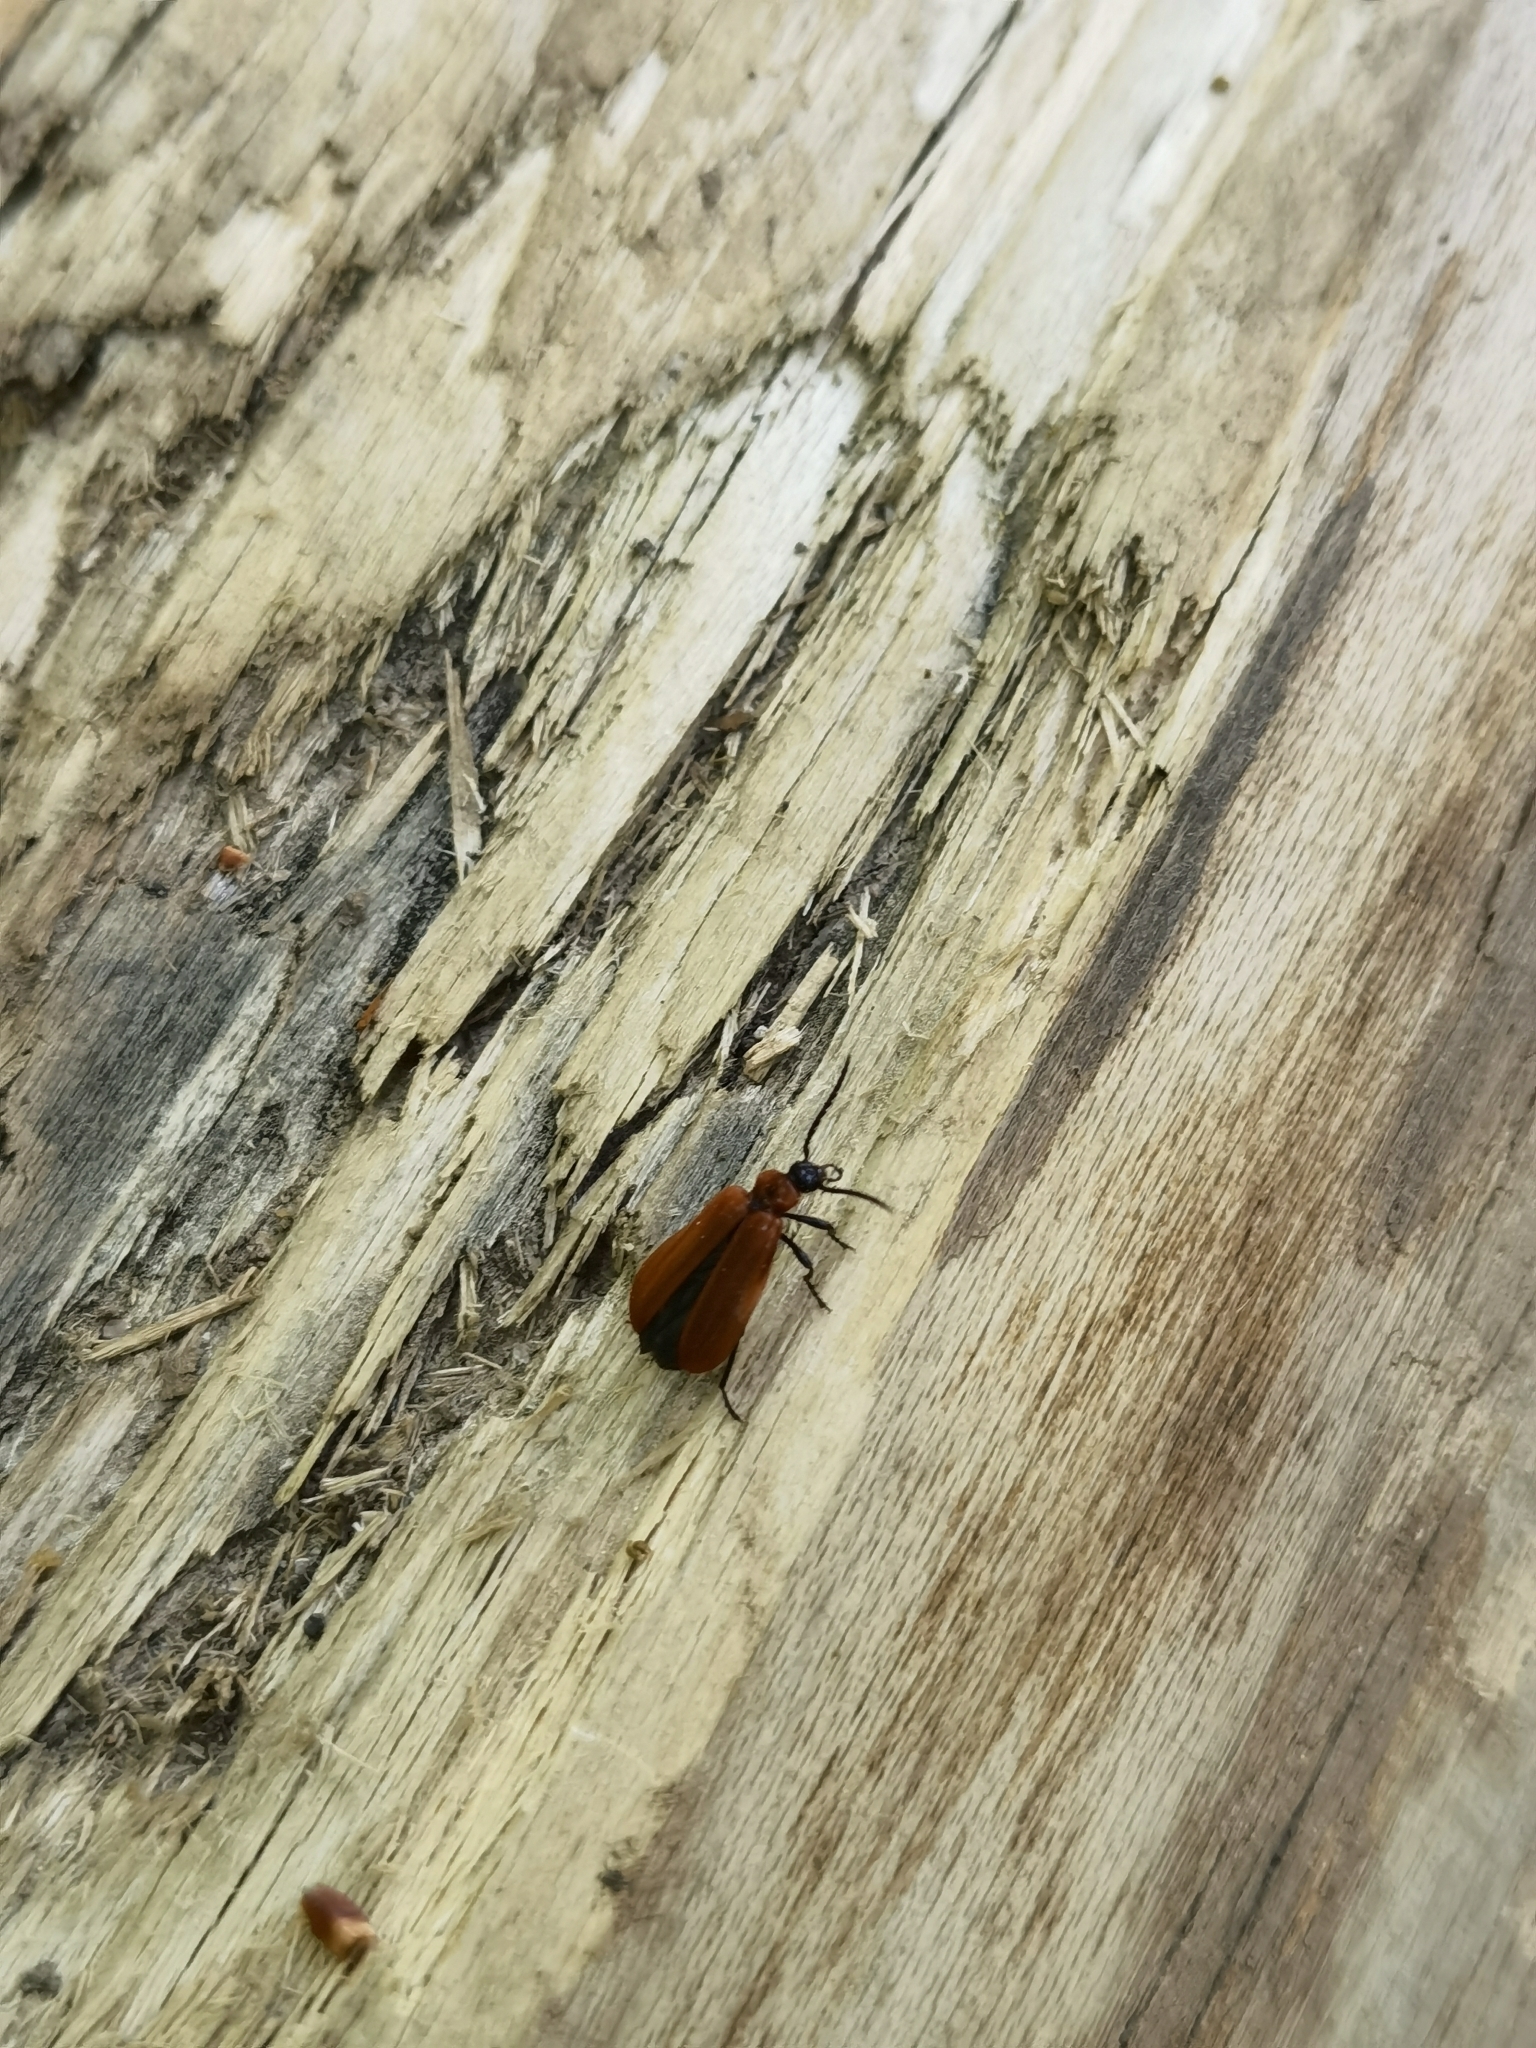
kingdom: Animalia
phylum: Arthropoda
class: Insecta
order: Coleoptera
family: Pyrochroidae
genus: Schizotus
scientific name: Schizotus pectinicornis
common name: Scarce cardinal beetle
